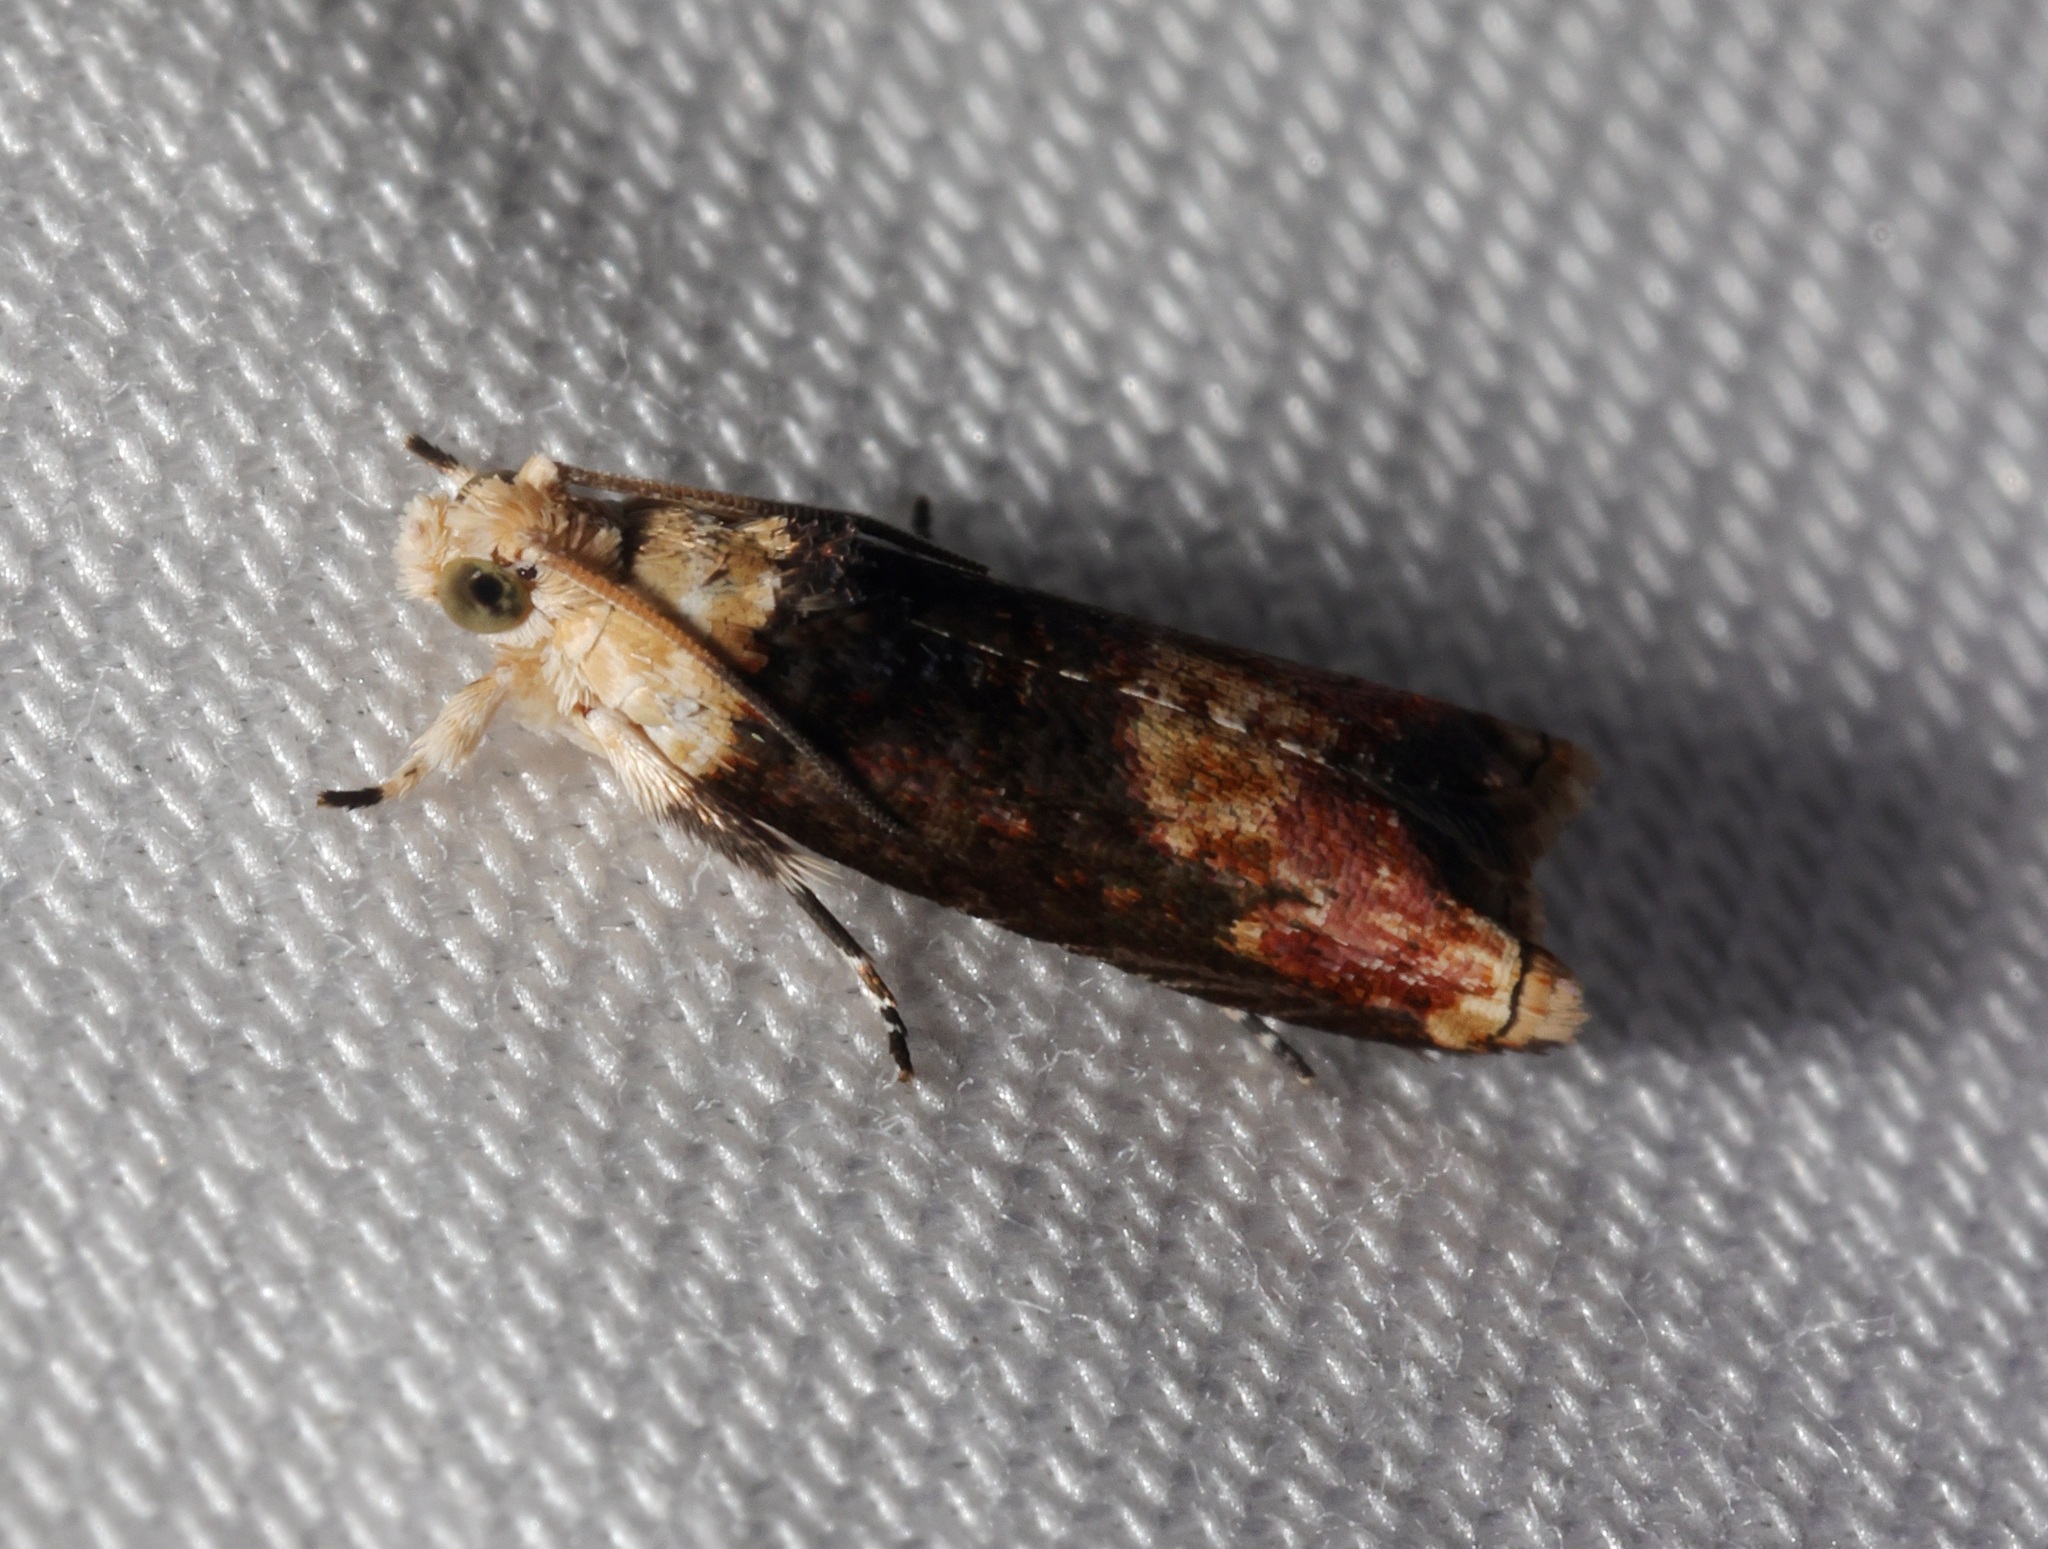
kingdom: Animalia
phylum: Arthropoda
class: Insecta
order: Lepidoptera
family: Tortricidae
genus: Hedya
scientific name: Hedya iophaea
